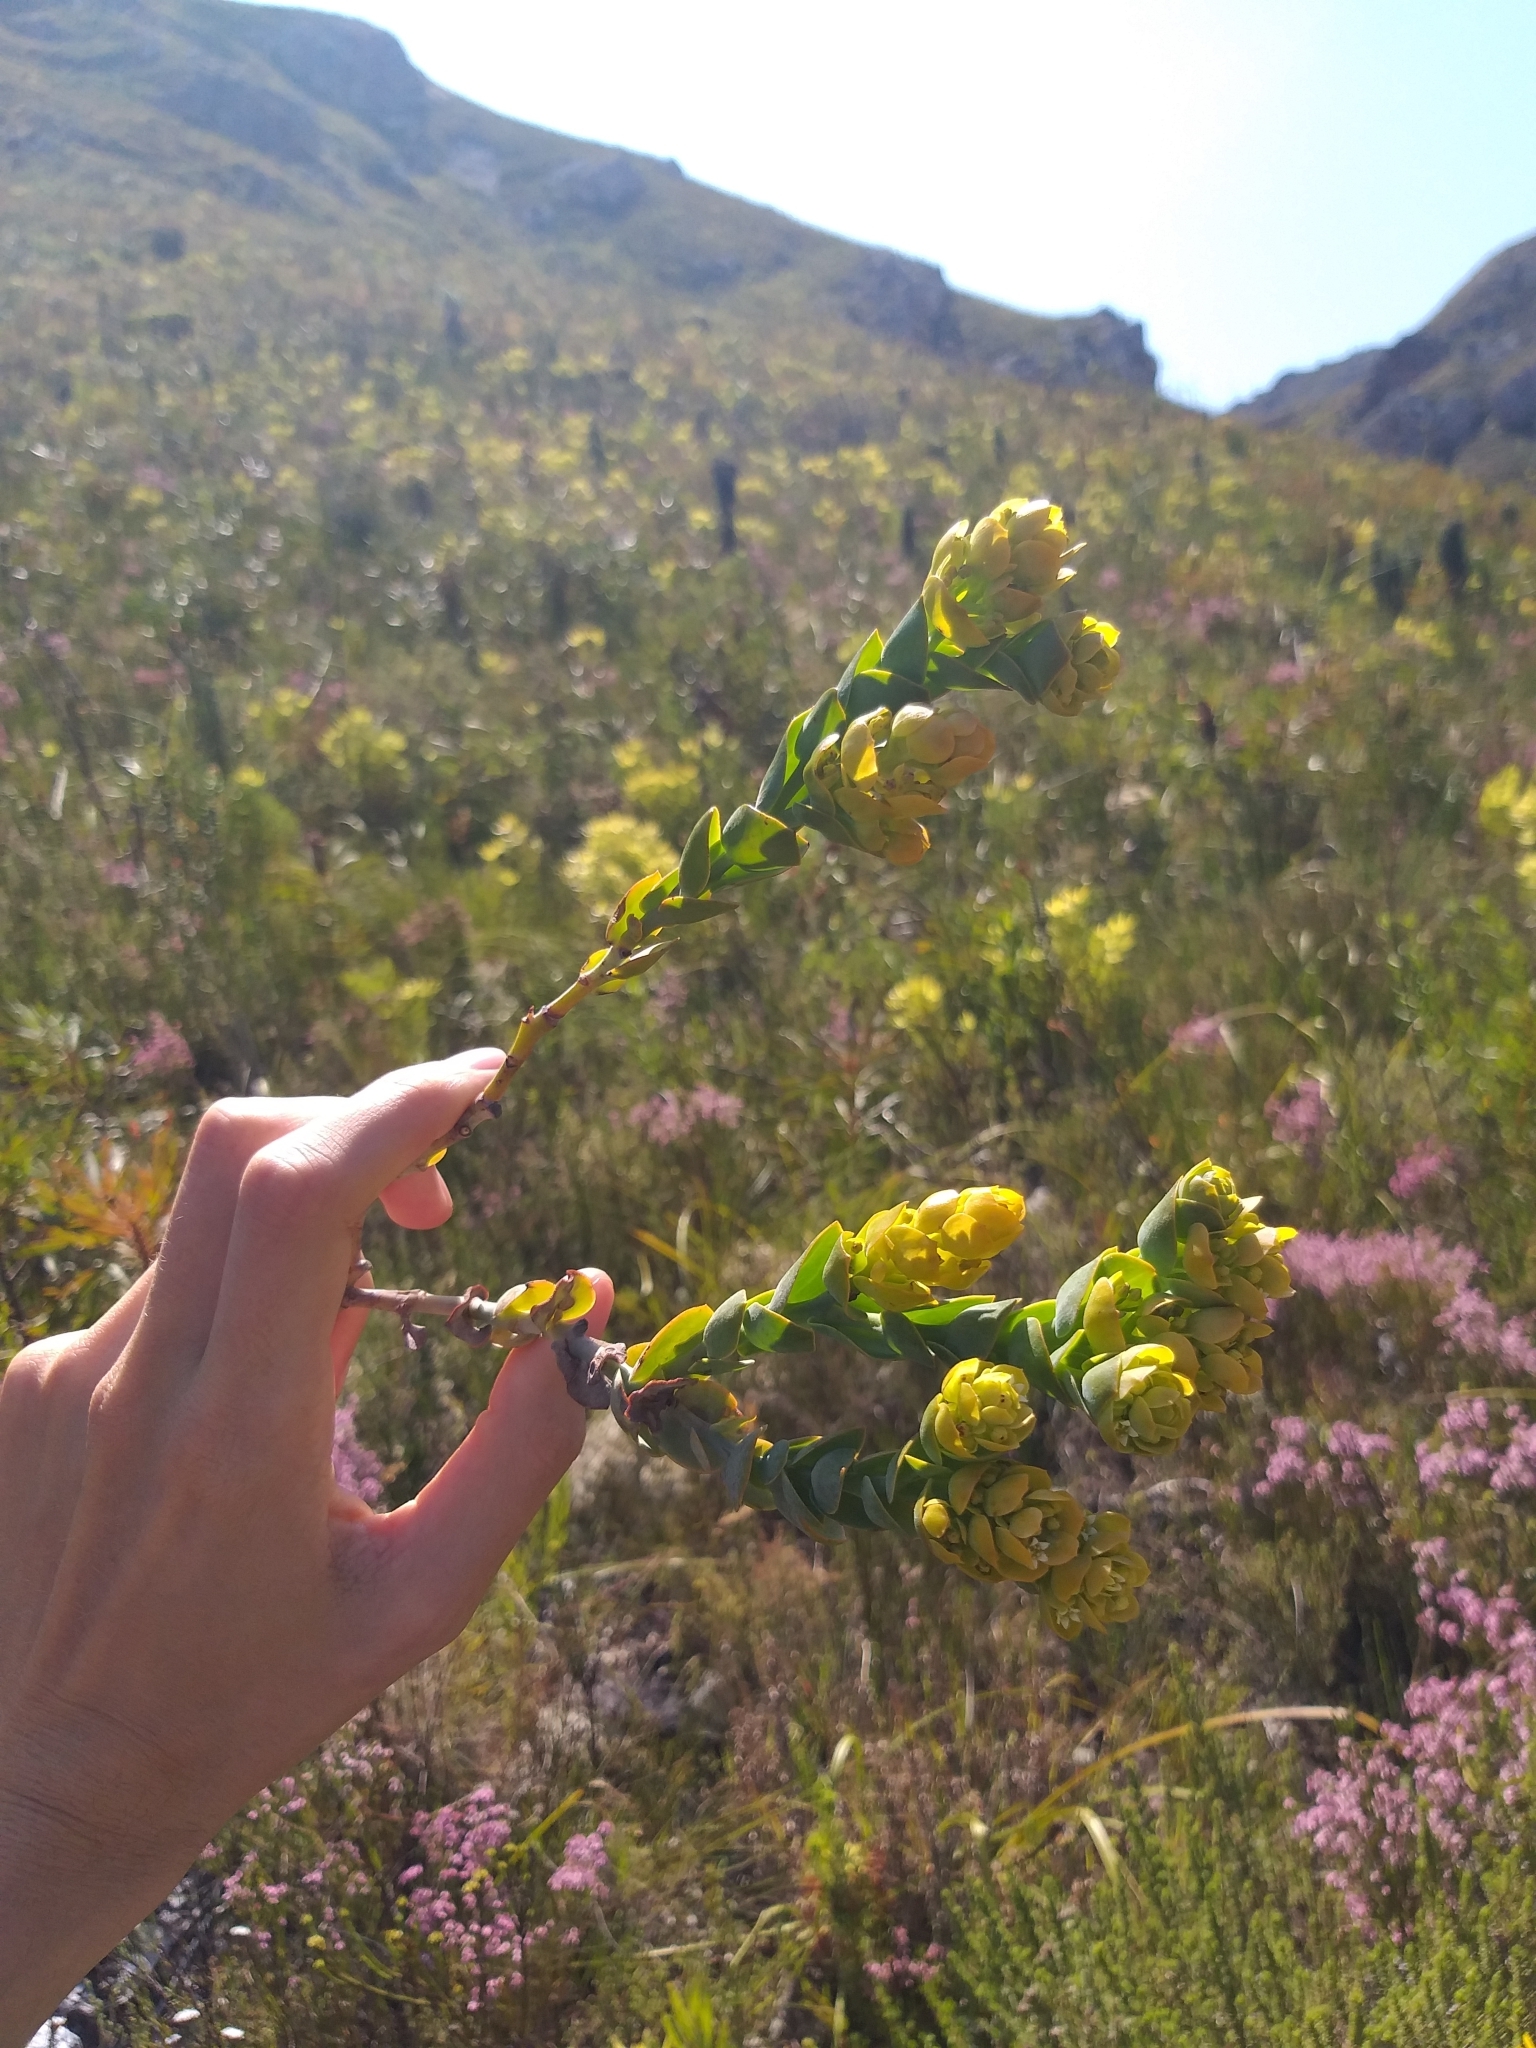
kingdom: Plantae
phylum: Tracheophyta
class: Magnoliopsida
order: Santalales
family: Thesiaceae
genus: Thesium
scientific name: Thesium euphorbioides
